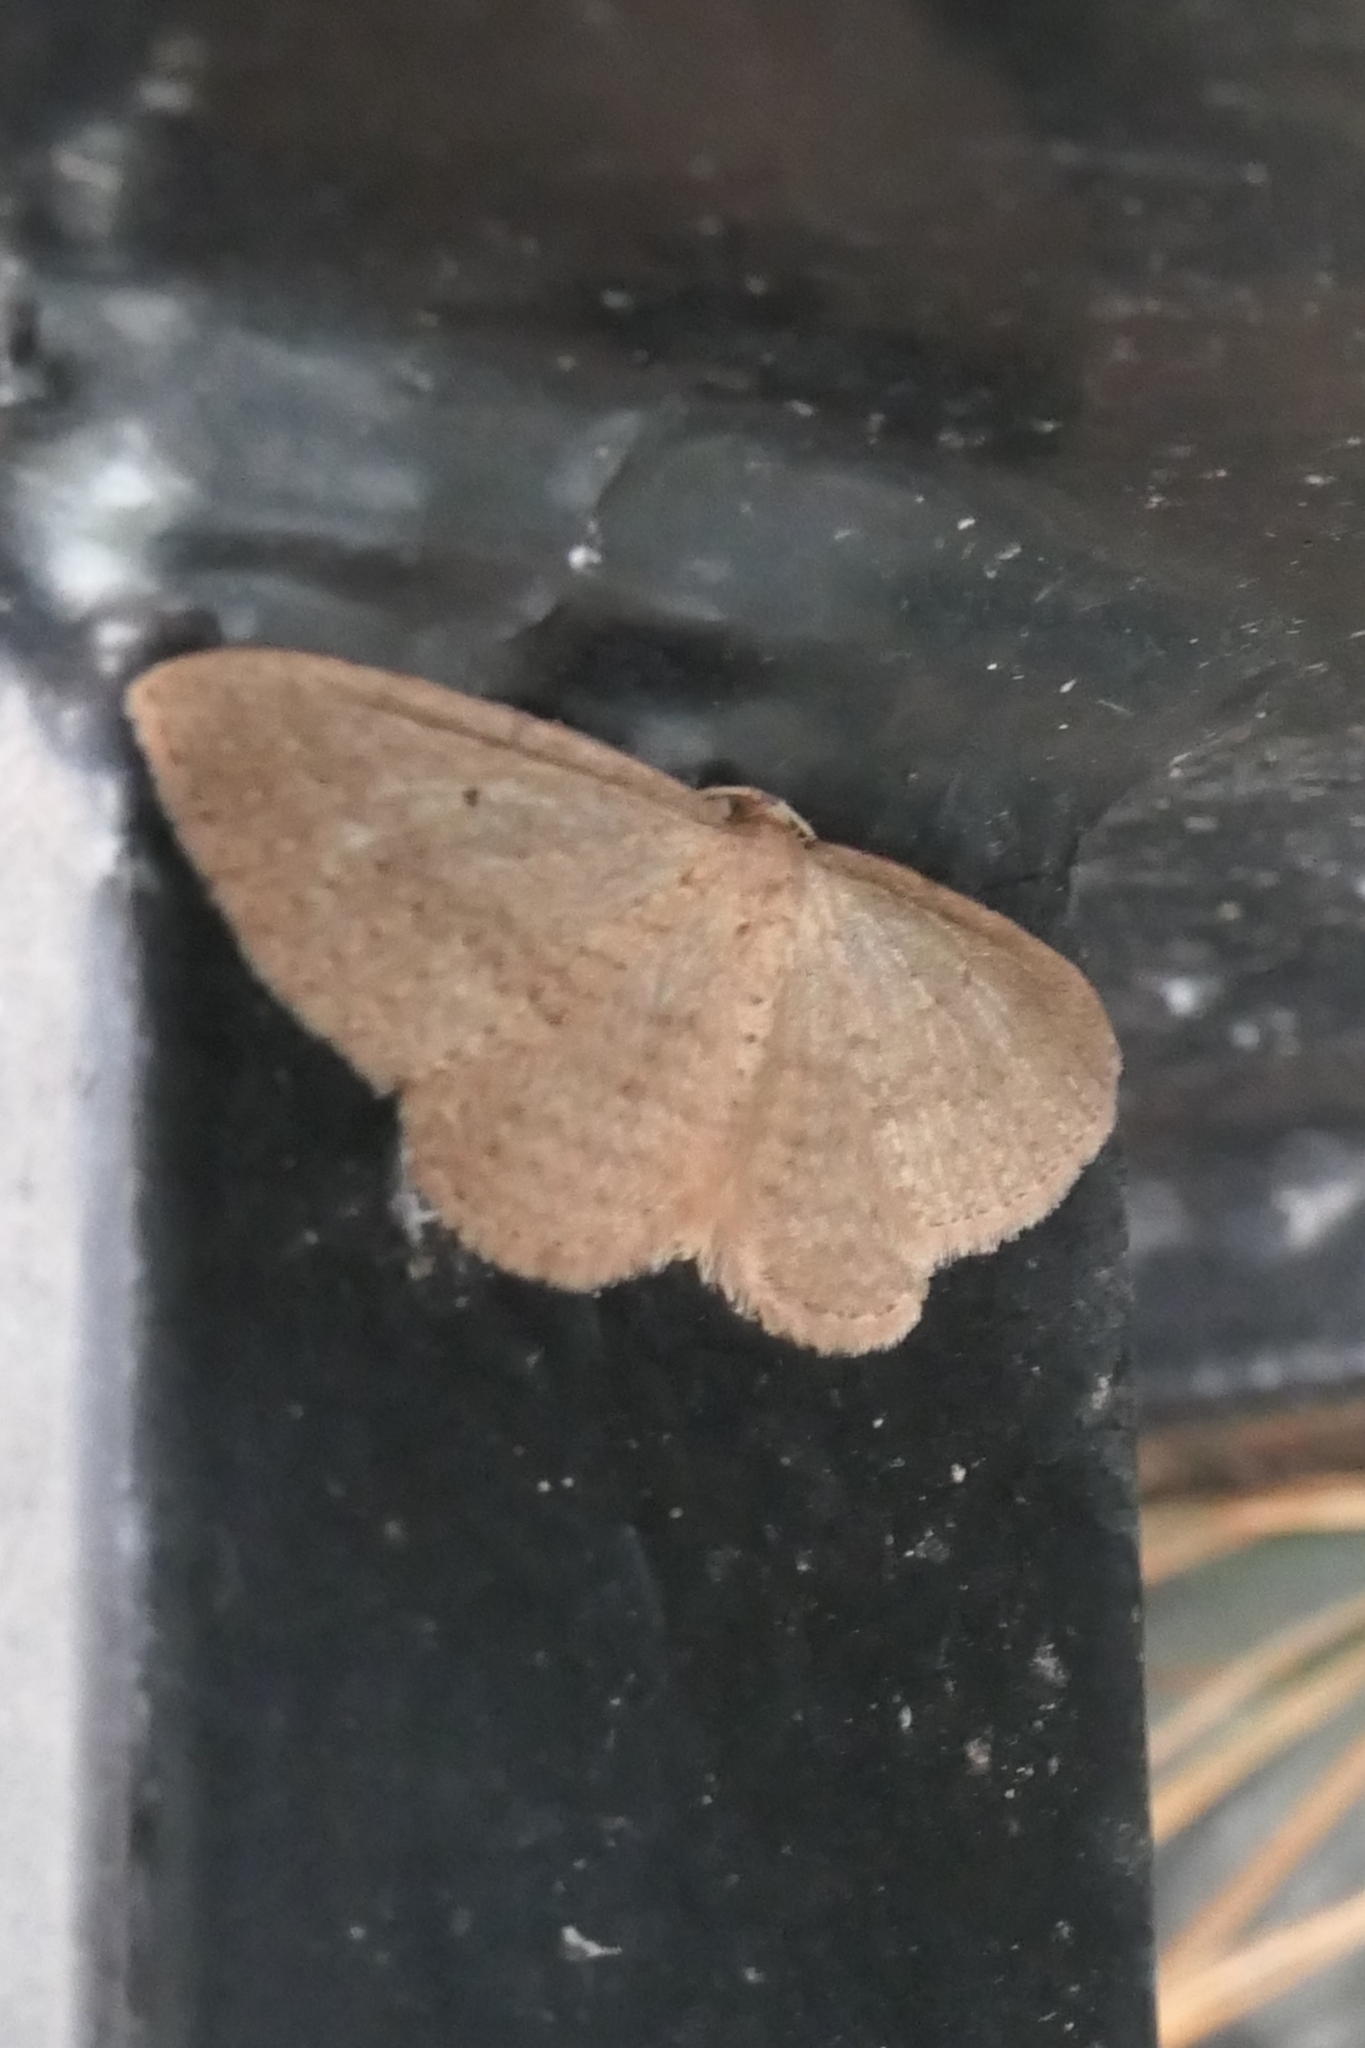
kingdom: Animalia
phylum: Arthropoda
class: Insecta
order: Lepidoptera
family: Geometridae
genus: Poecilasthena
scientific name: Poecilasthena schistaria
